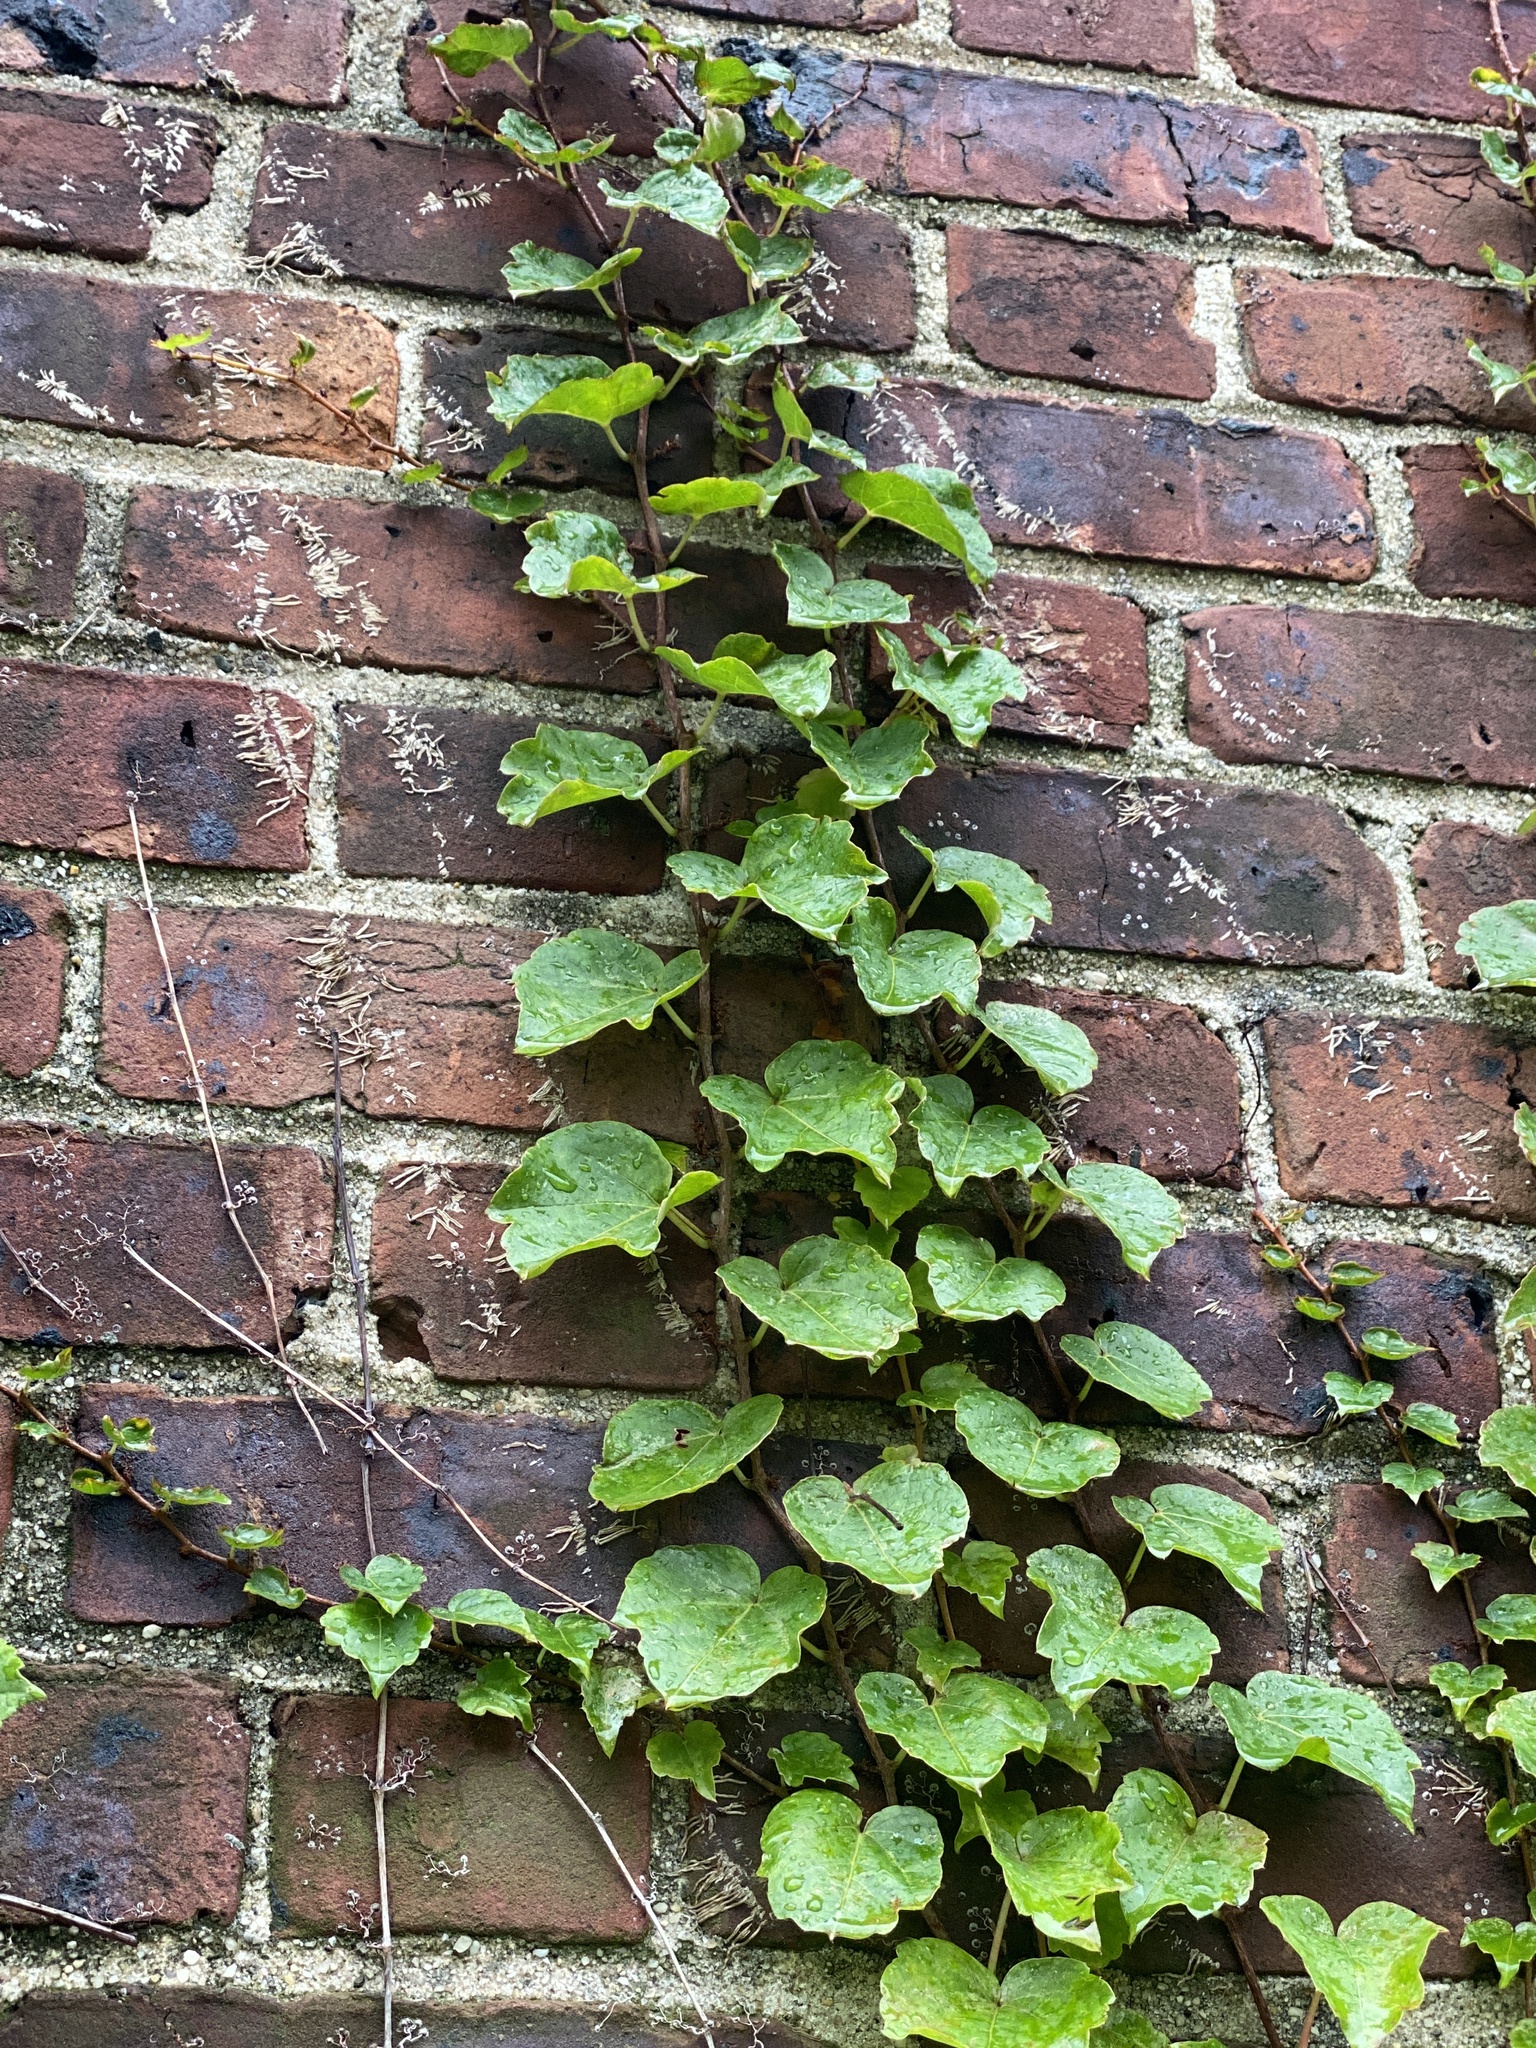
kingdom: Plantae
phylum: Tracheophyta
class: Magnoliopsida
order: Vitales
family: Vitaceae
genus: Parthenocissus
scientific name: Parthenocissus tricuspidata
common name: Boston ivy
